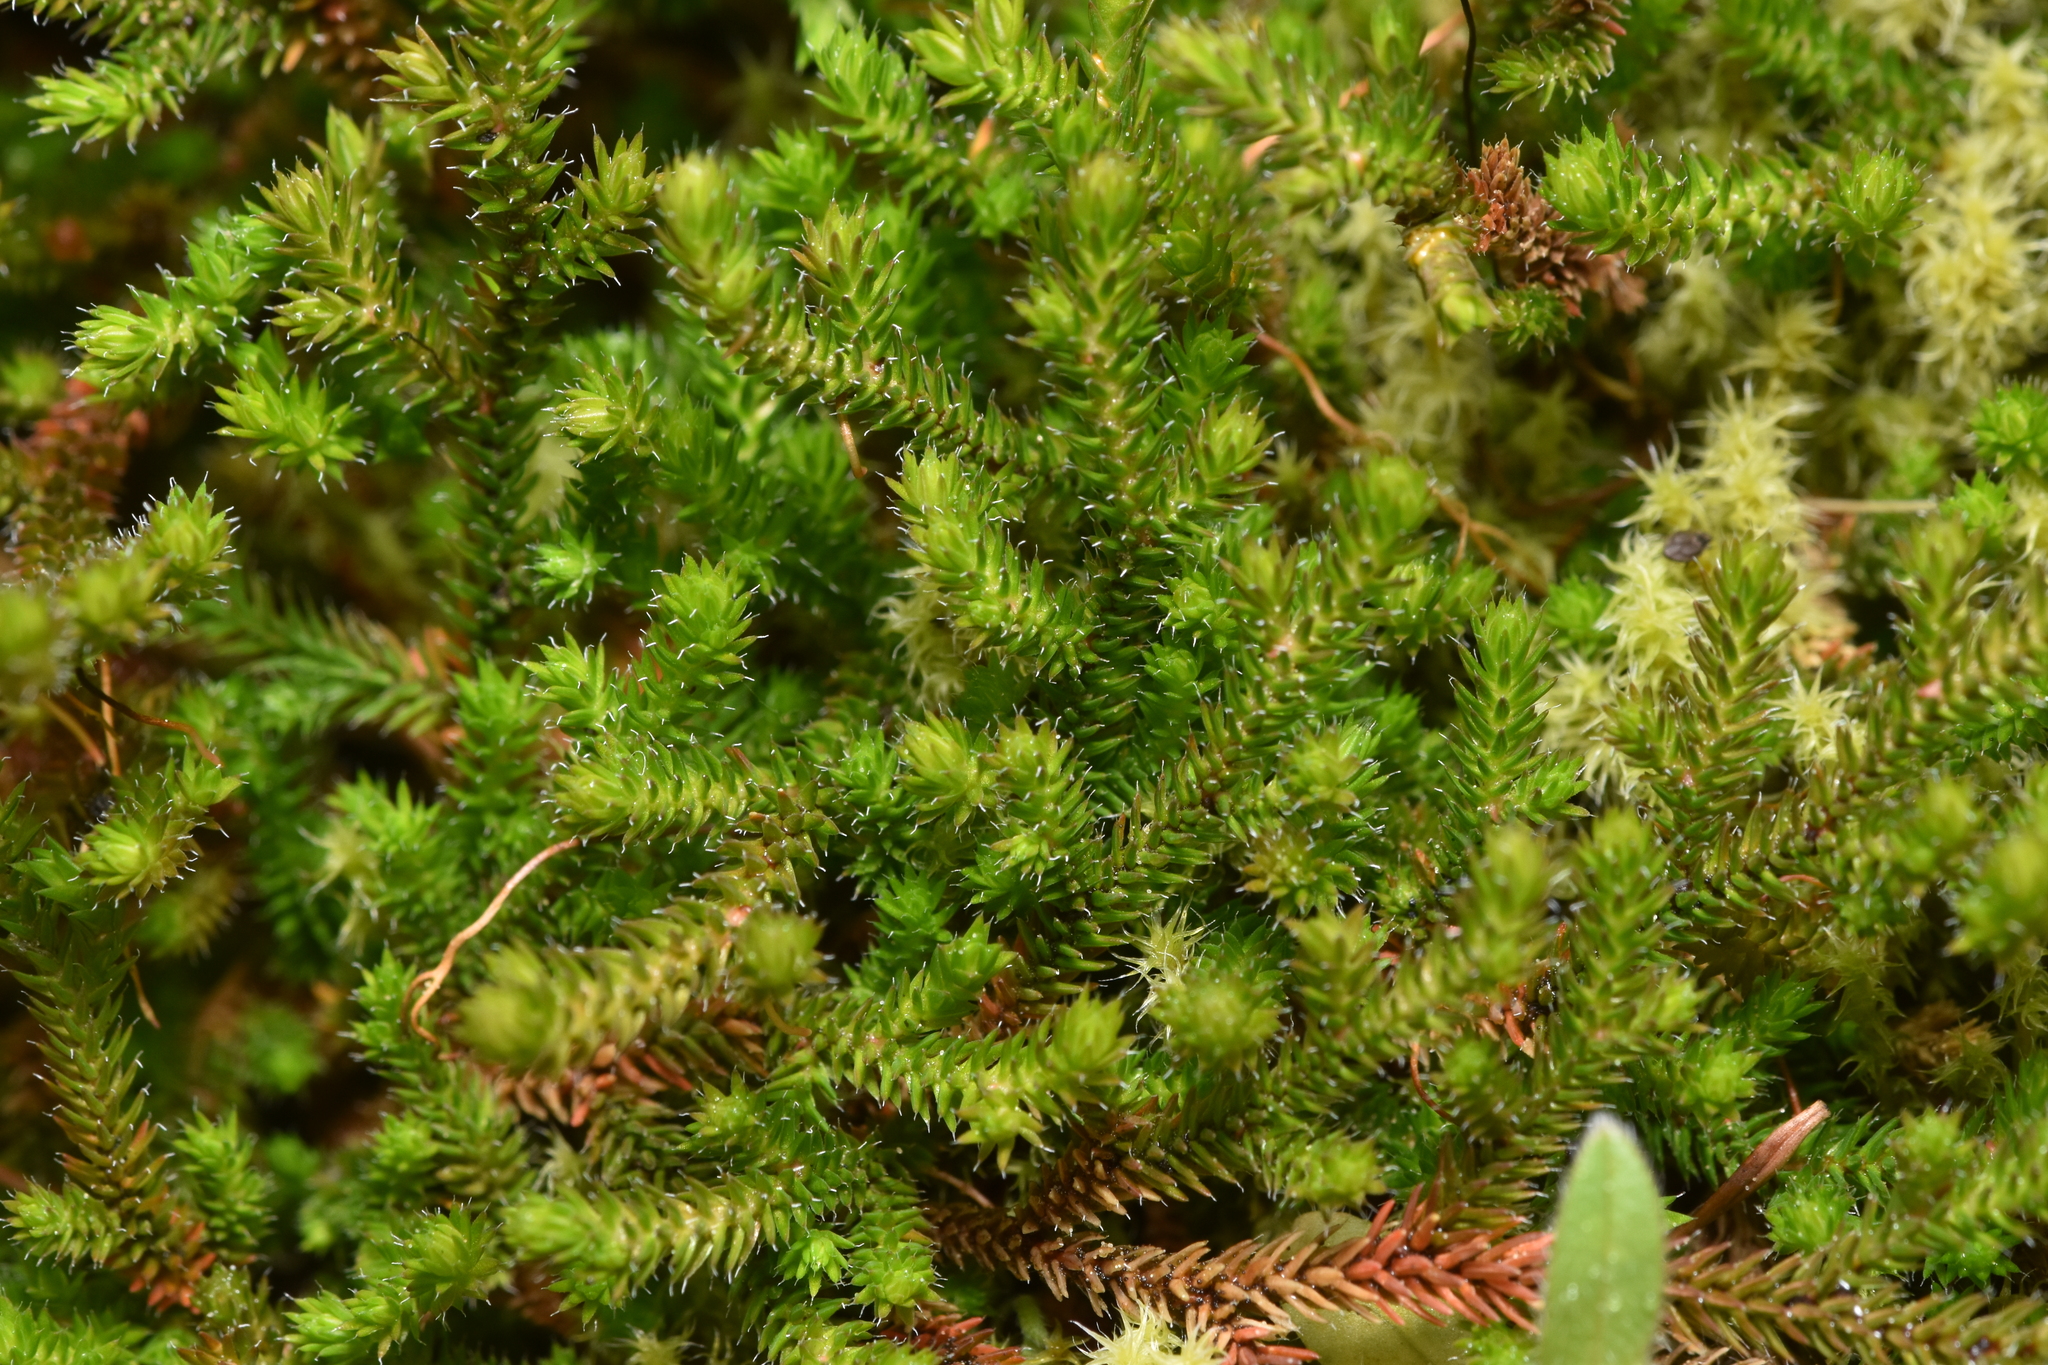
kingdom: Plantae
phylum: Tracheophyta
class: Lycopodiopsida
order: Selaginellales
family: Selaginellaceae
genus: Selaginella
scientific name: Selaginella wallacei
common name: Wallace's selaginella
